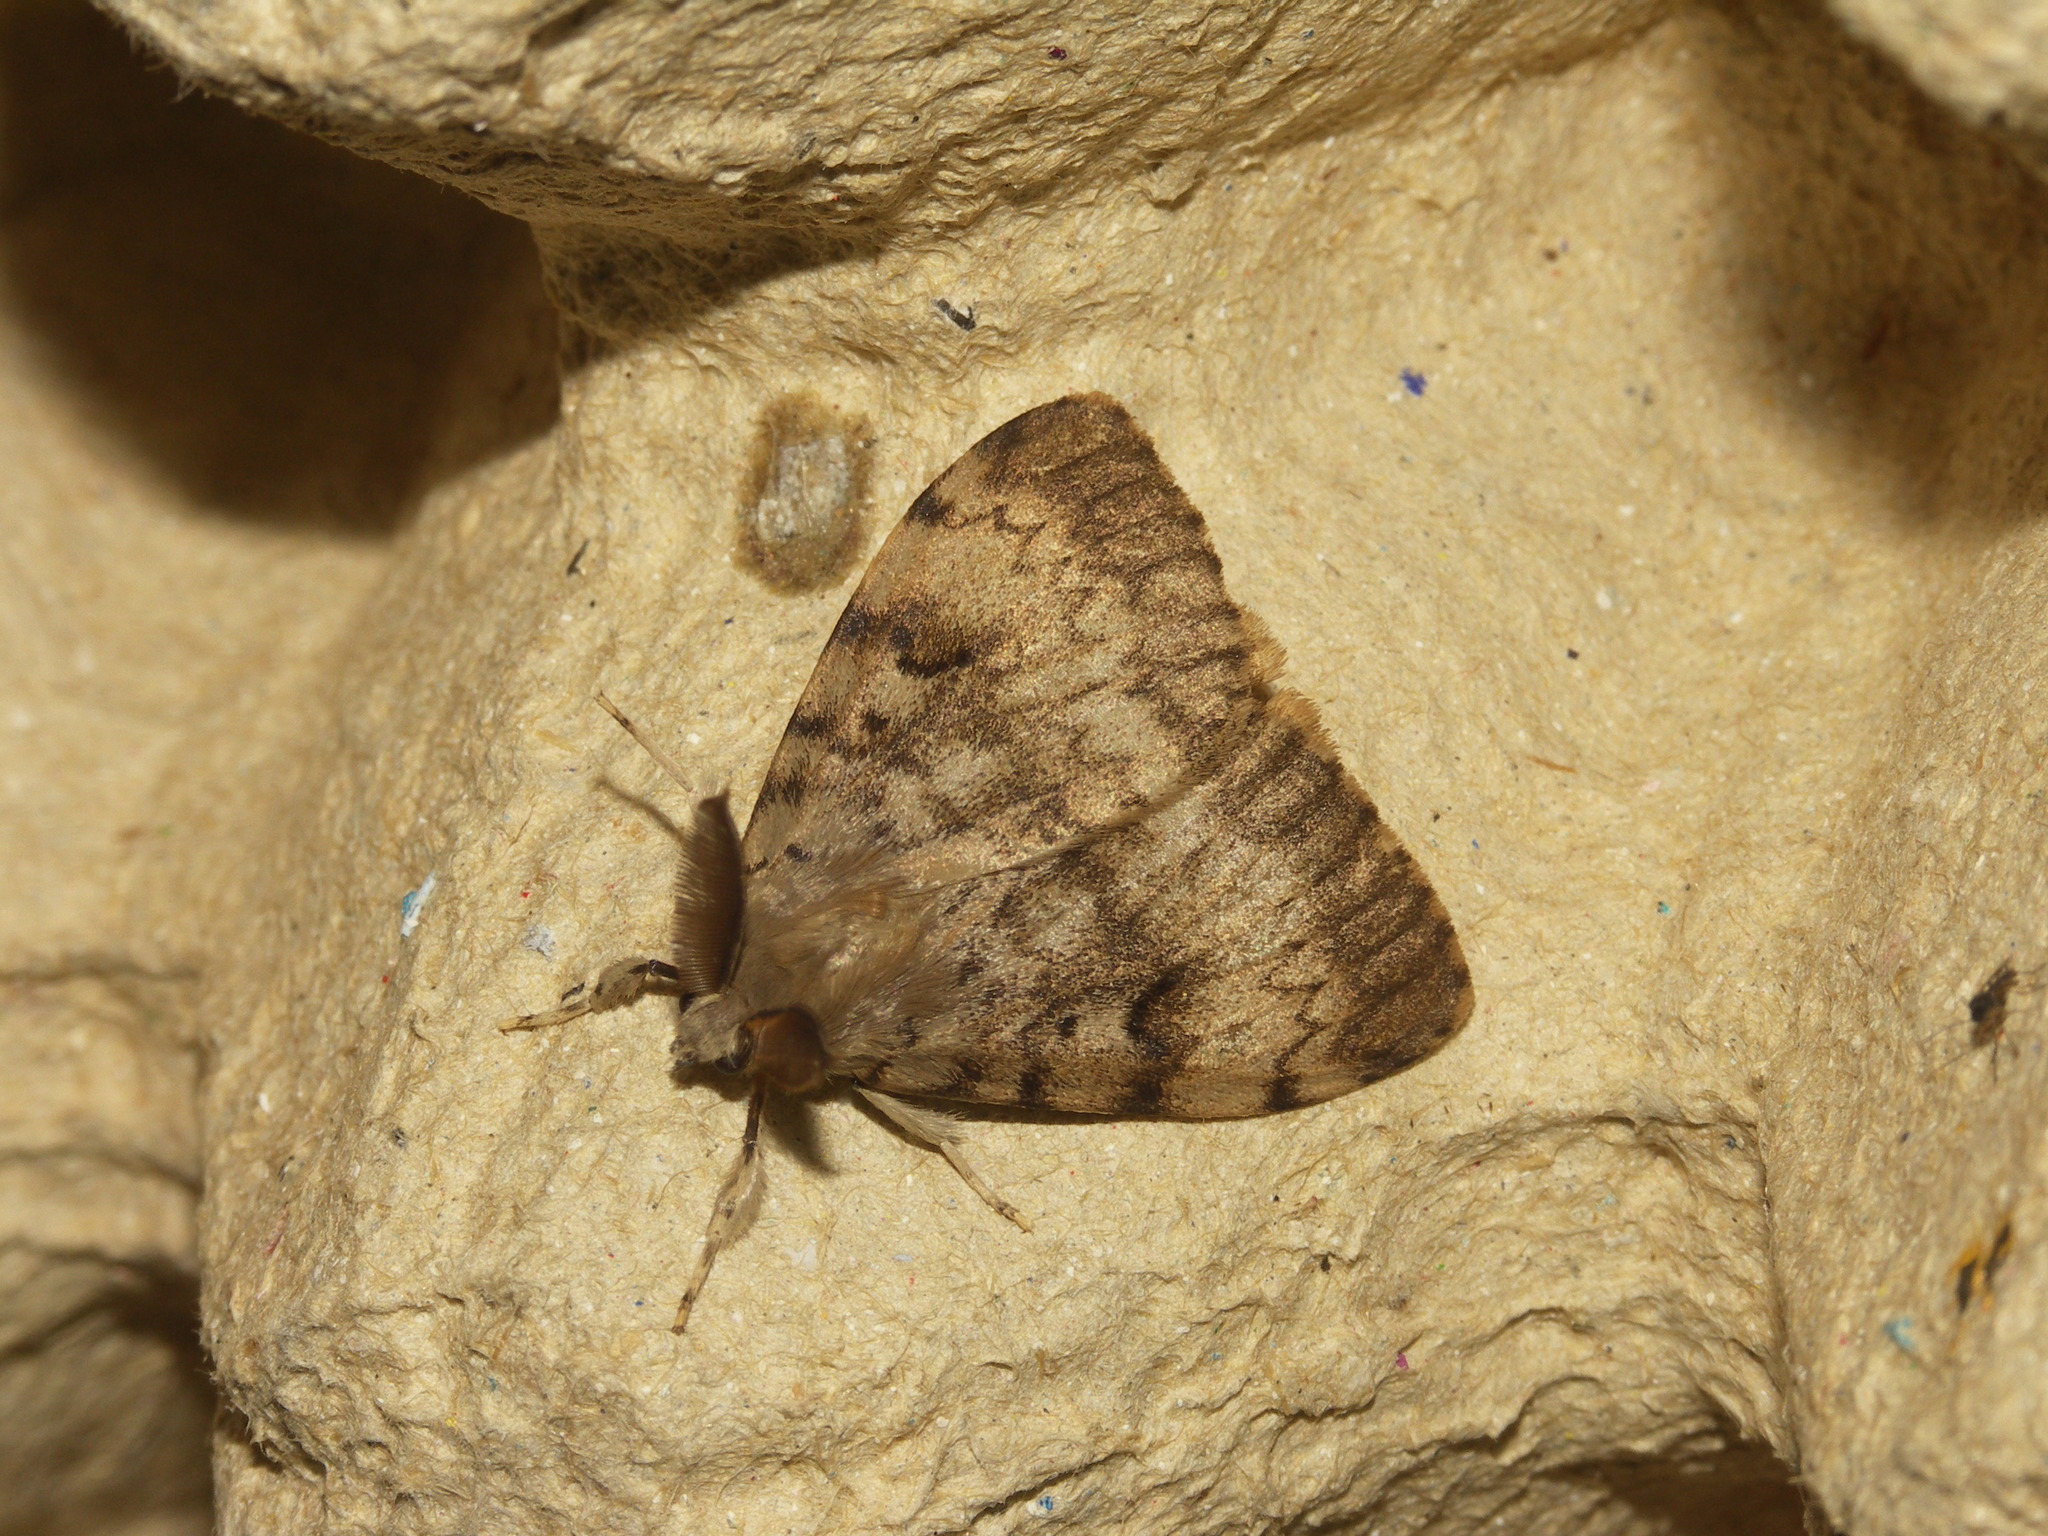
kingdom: Animalia
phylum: Arthropoda
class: Insecta
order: Lepidoptera
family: Erebidae
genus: Lymantria
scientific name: Lymantria dispar
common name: Gypsy moth
